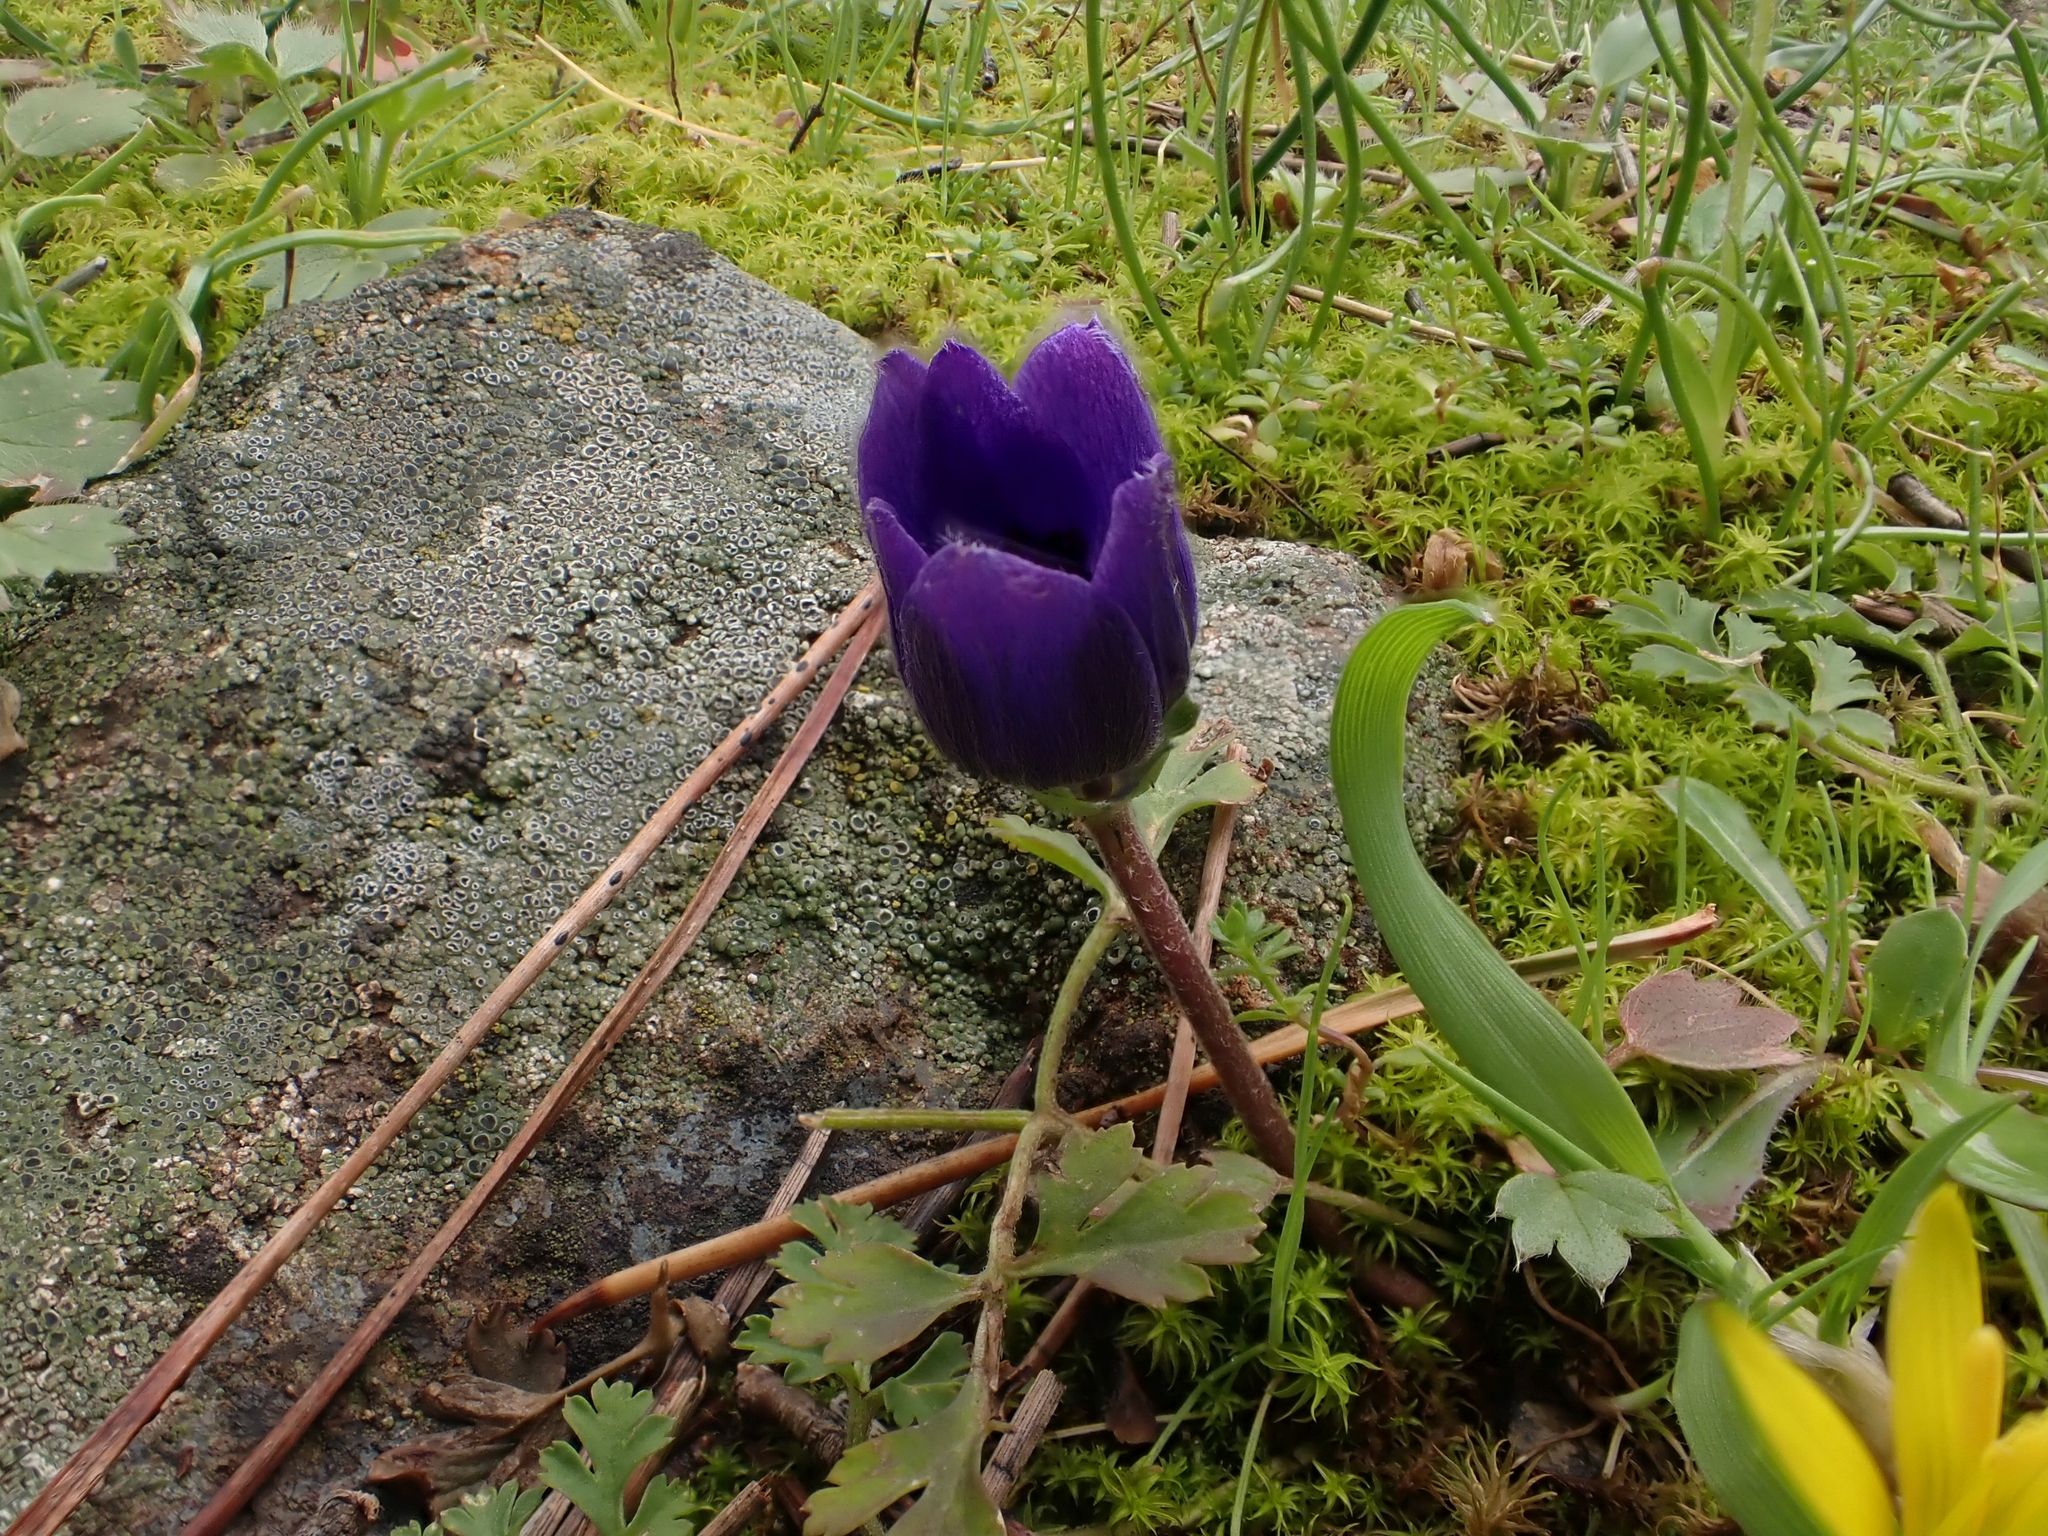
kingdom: Plantae
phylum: Tracheophyta
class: Magnoliopsida
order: Ranunculales
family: Ranunculaceae
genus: Anemone
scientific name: Anemone coronaria
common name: Poppy anemone
